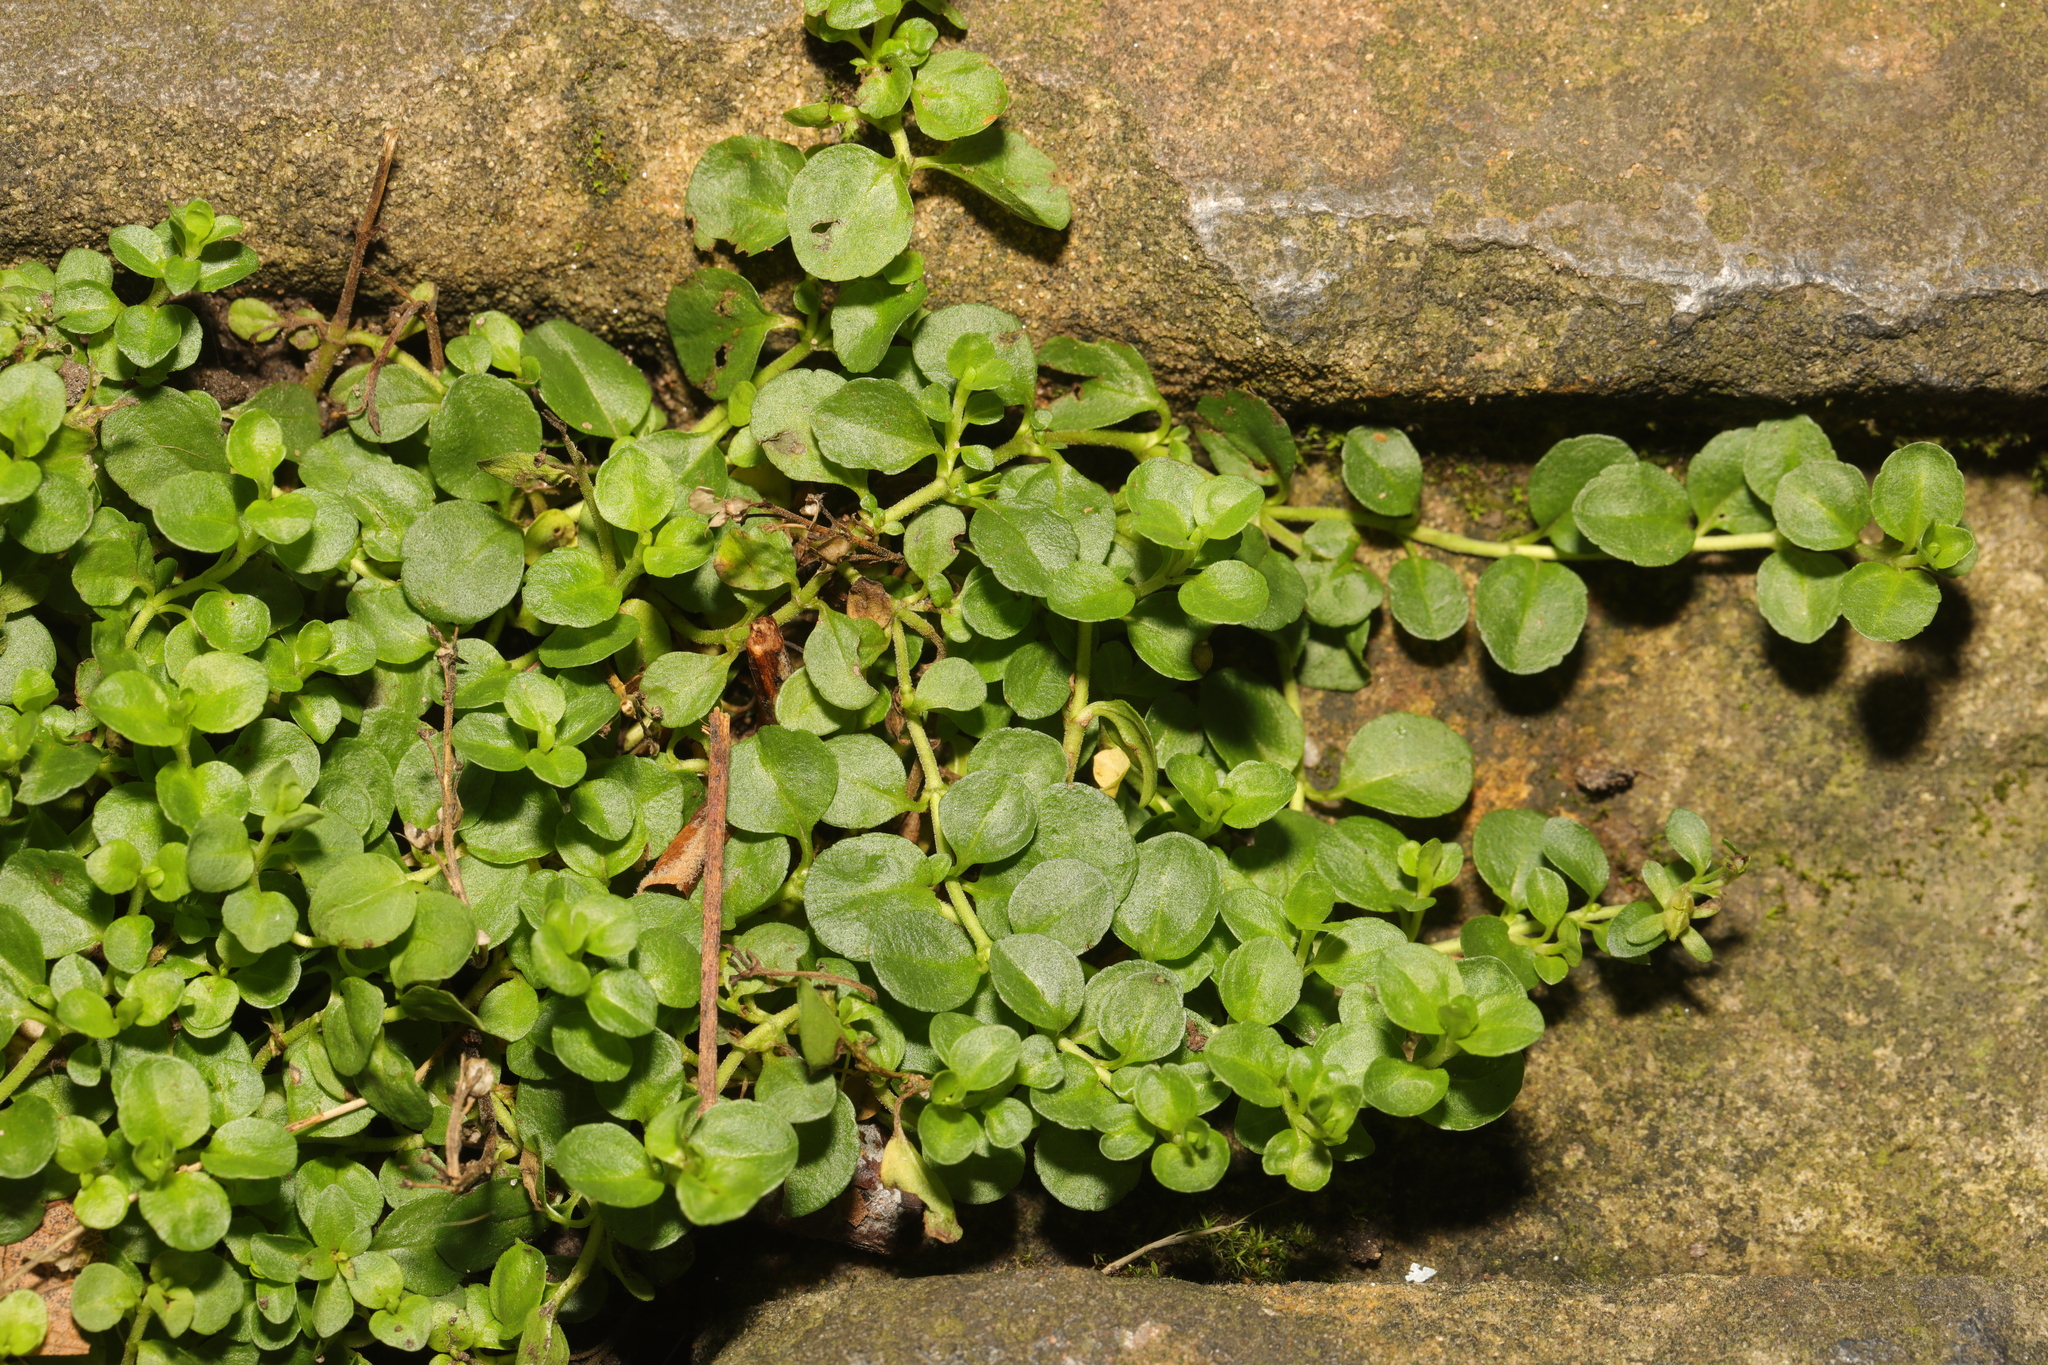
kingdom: Plantae
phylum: Tracheophyta
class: Magnoliopsida
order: Ericales
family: Primulaceae
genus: Lysimachia
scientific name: Lysimachia nummularia
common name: Moneywort
